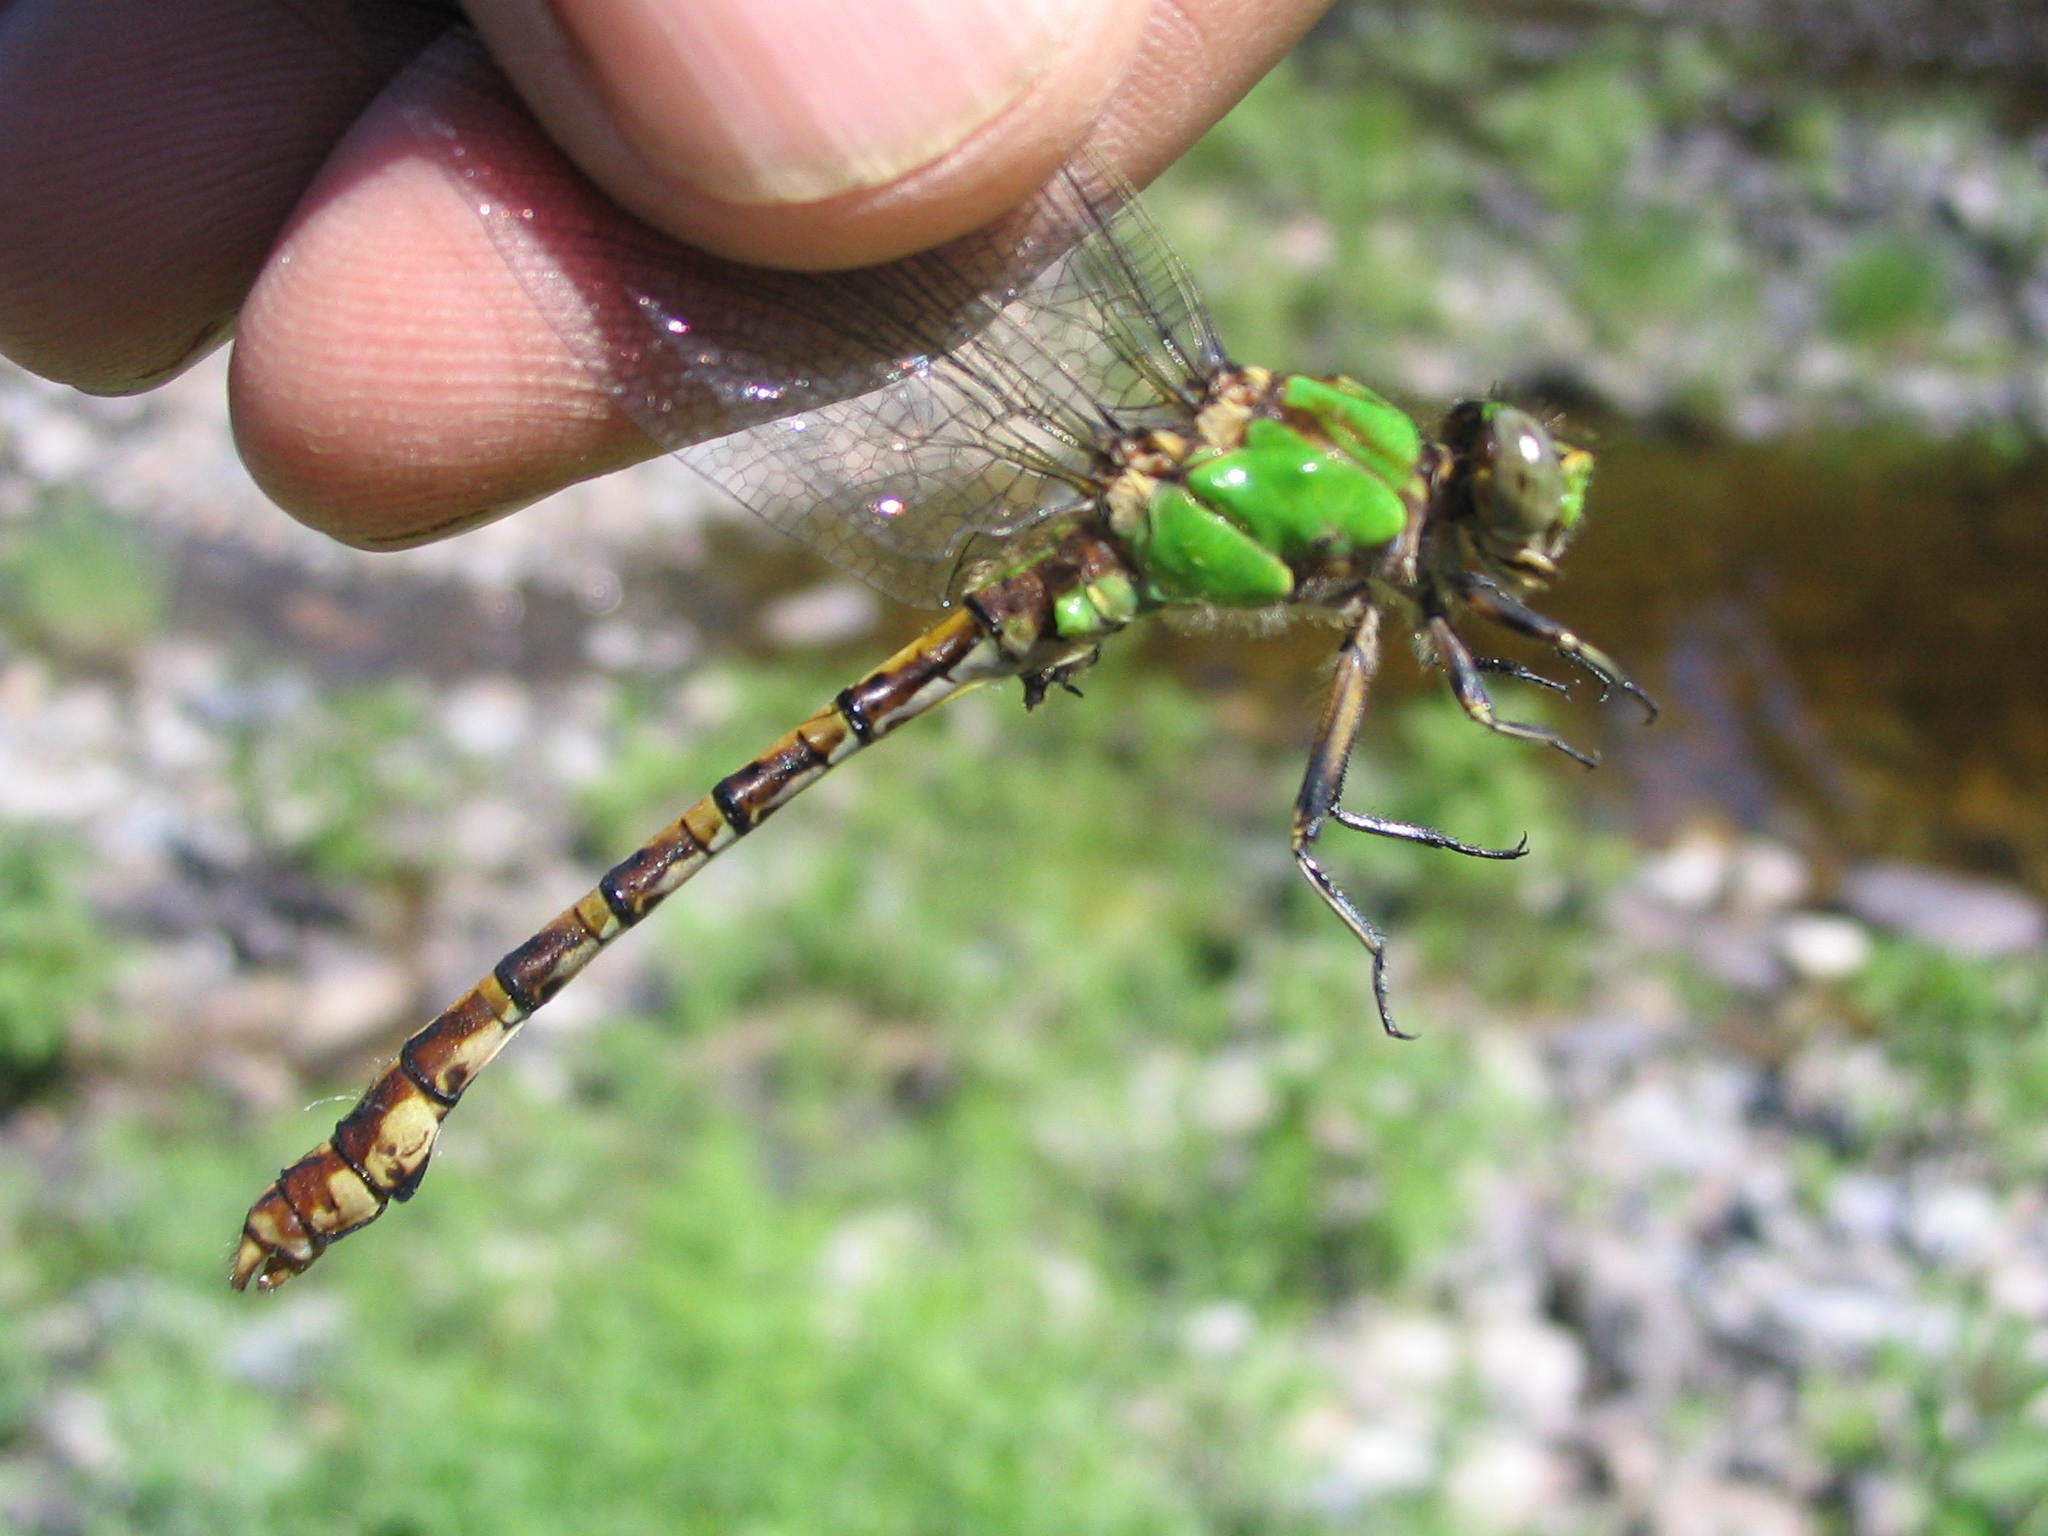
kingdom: Animalia
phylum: Arthropoda
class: Insecta
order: Odonata
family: Gomphidae
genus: Ophiogomphus
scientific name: Ophiogomphus rupinsulensis
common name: Rusty snaketail
